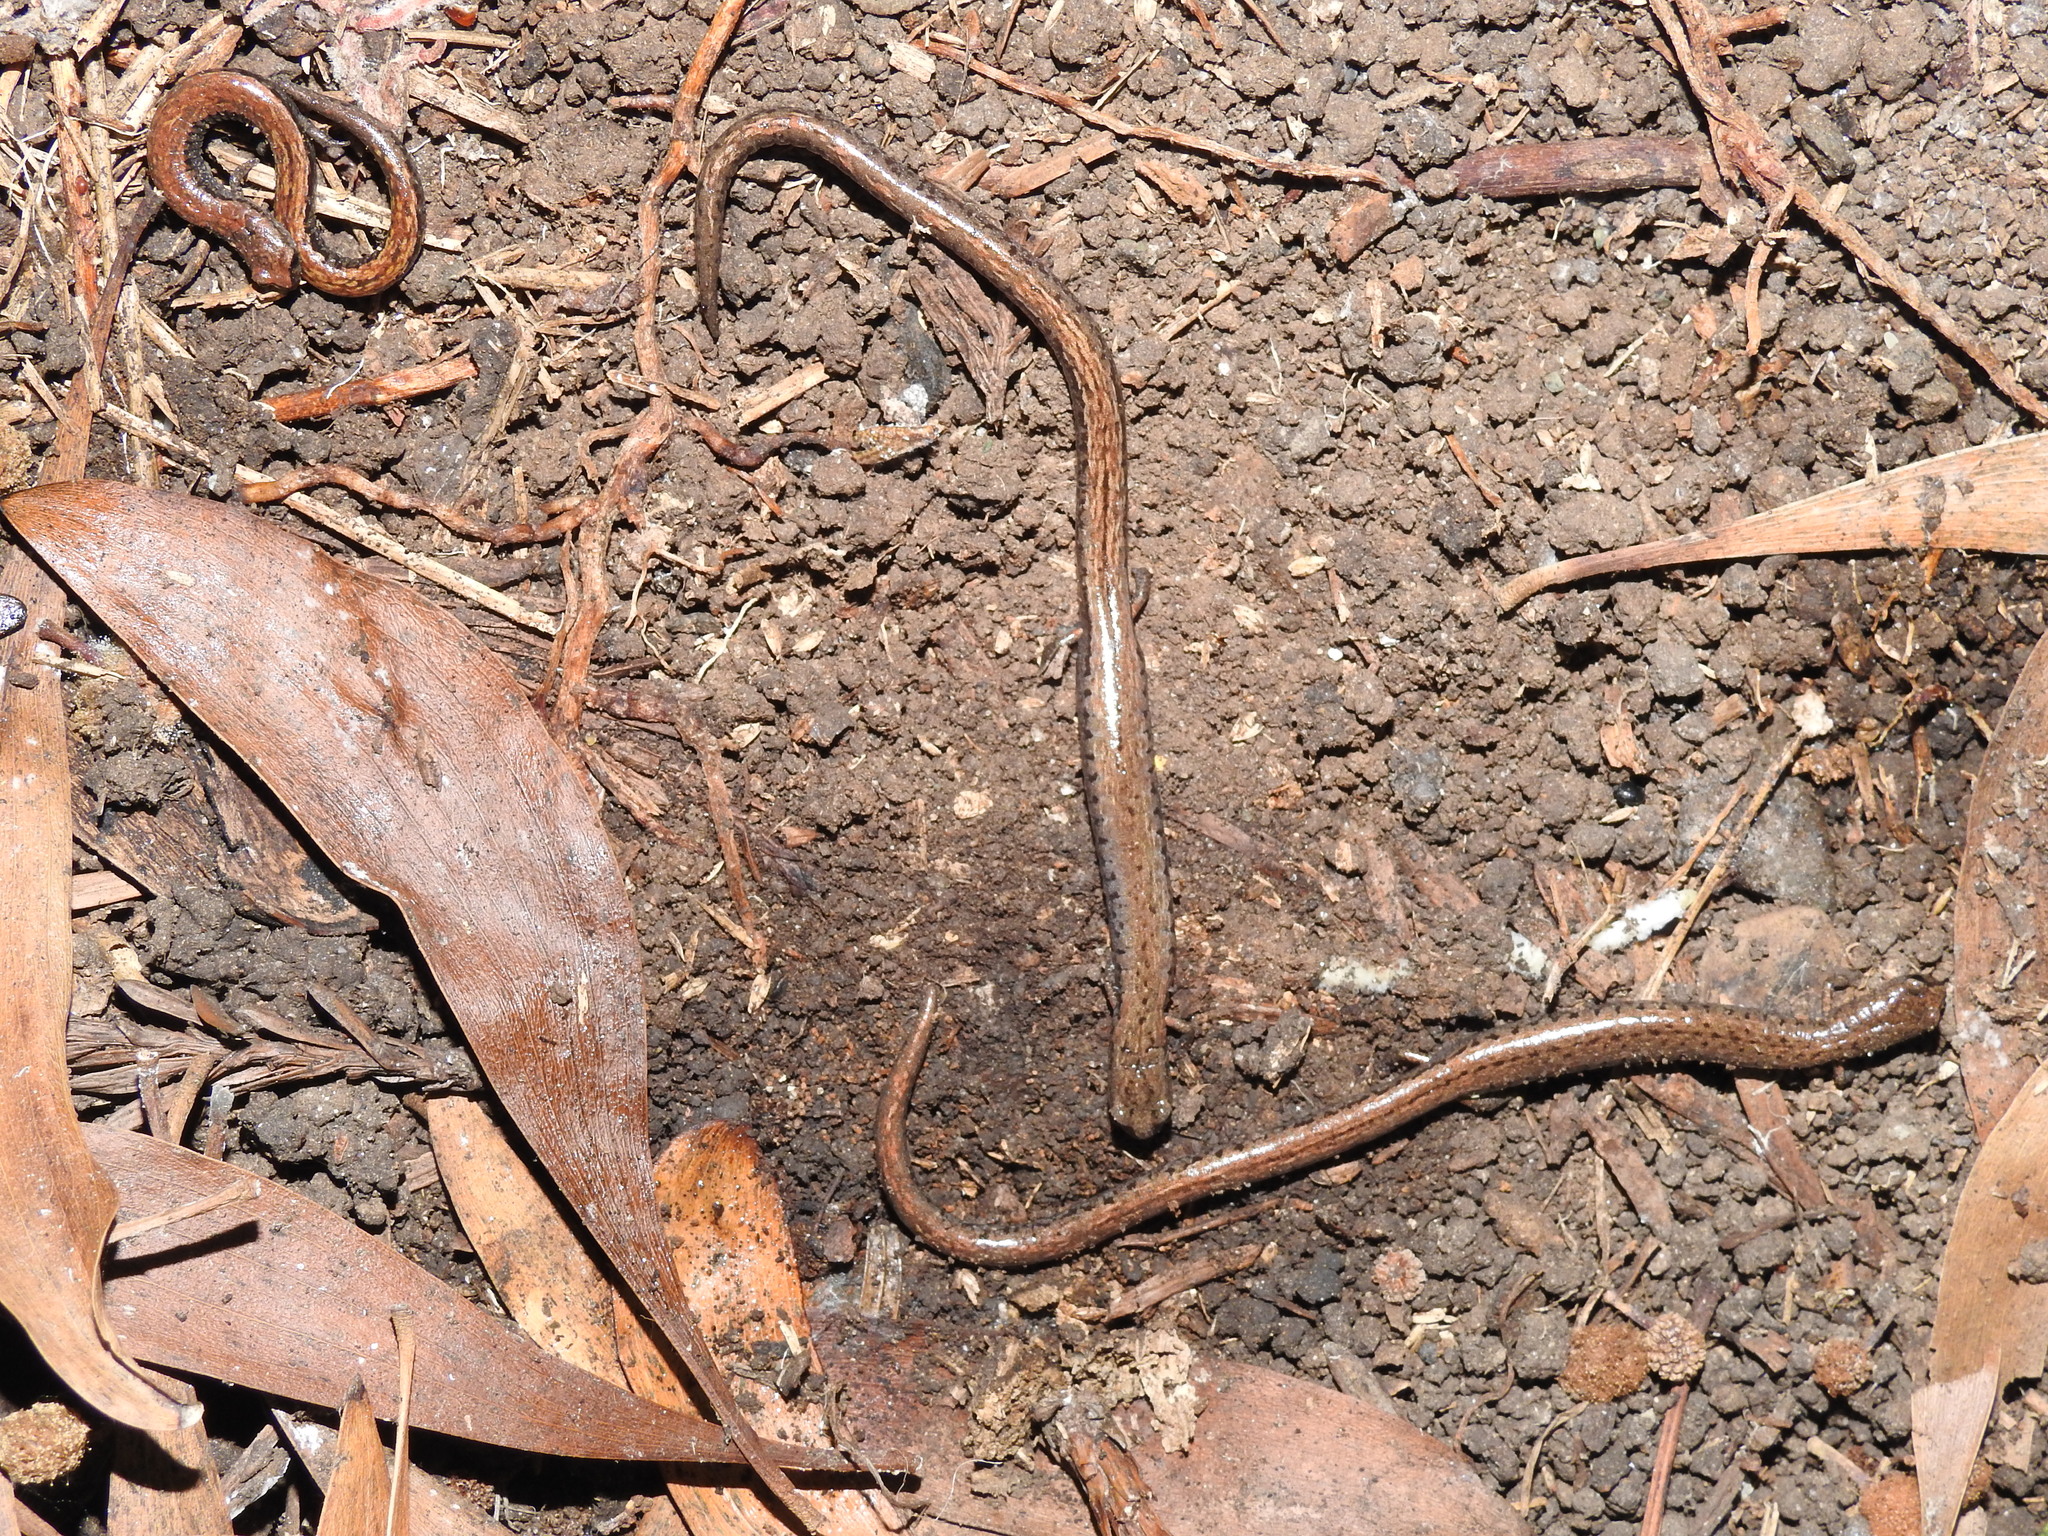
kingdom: Animalia
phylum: Chordata
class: Amphibia
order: Caudata
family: Plethodontidae
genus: Batrachoseps
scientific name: Batrachoseps attenuatus
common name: California slender salamander
